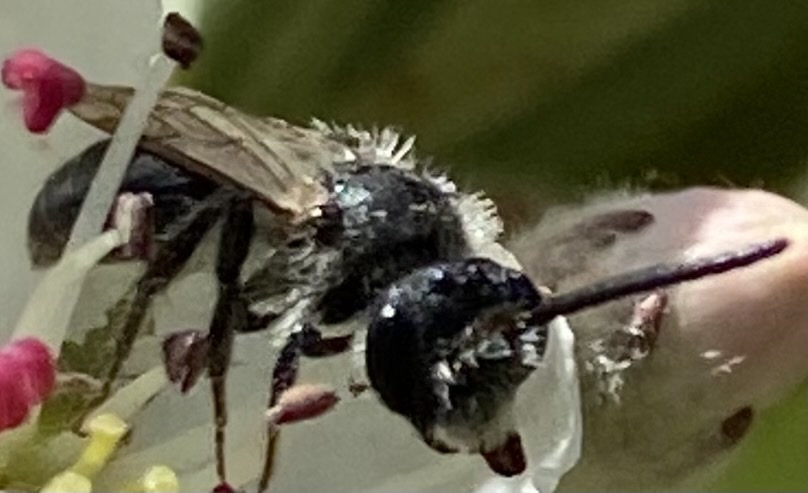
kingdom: Animalia
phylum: Arthropoda
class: Insecta
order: Hymenoptera
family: Andrenidae
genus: Andrena
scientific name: Andrena
